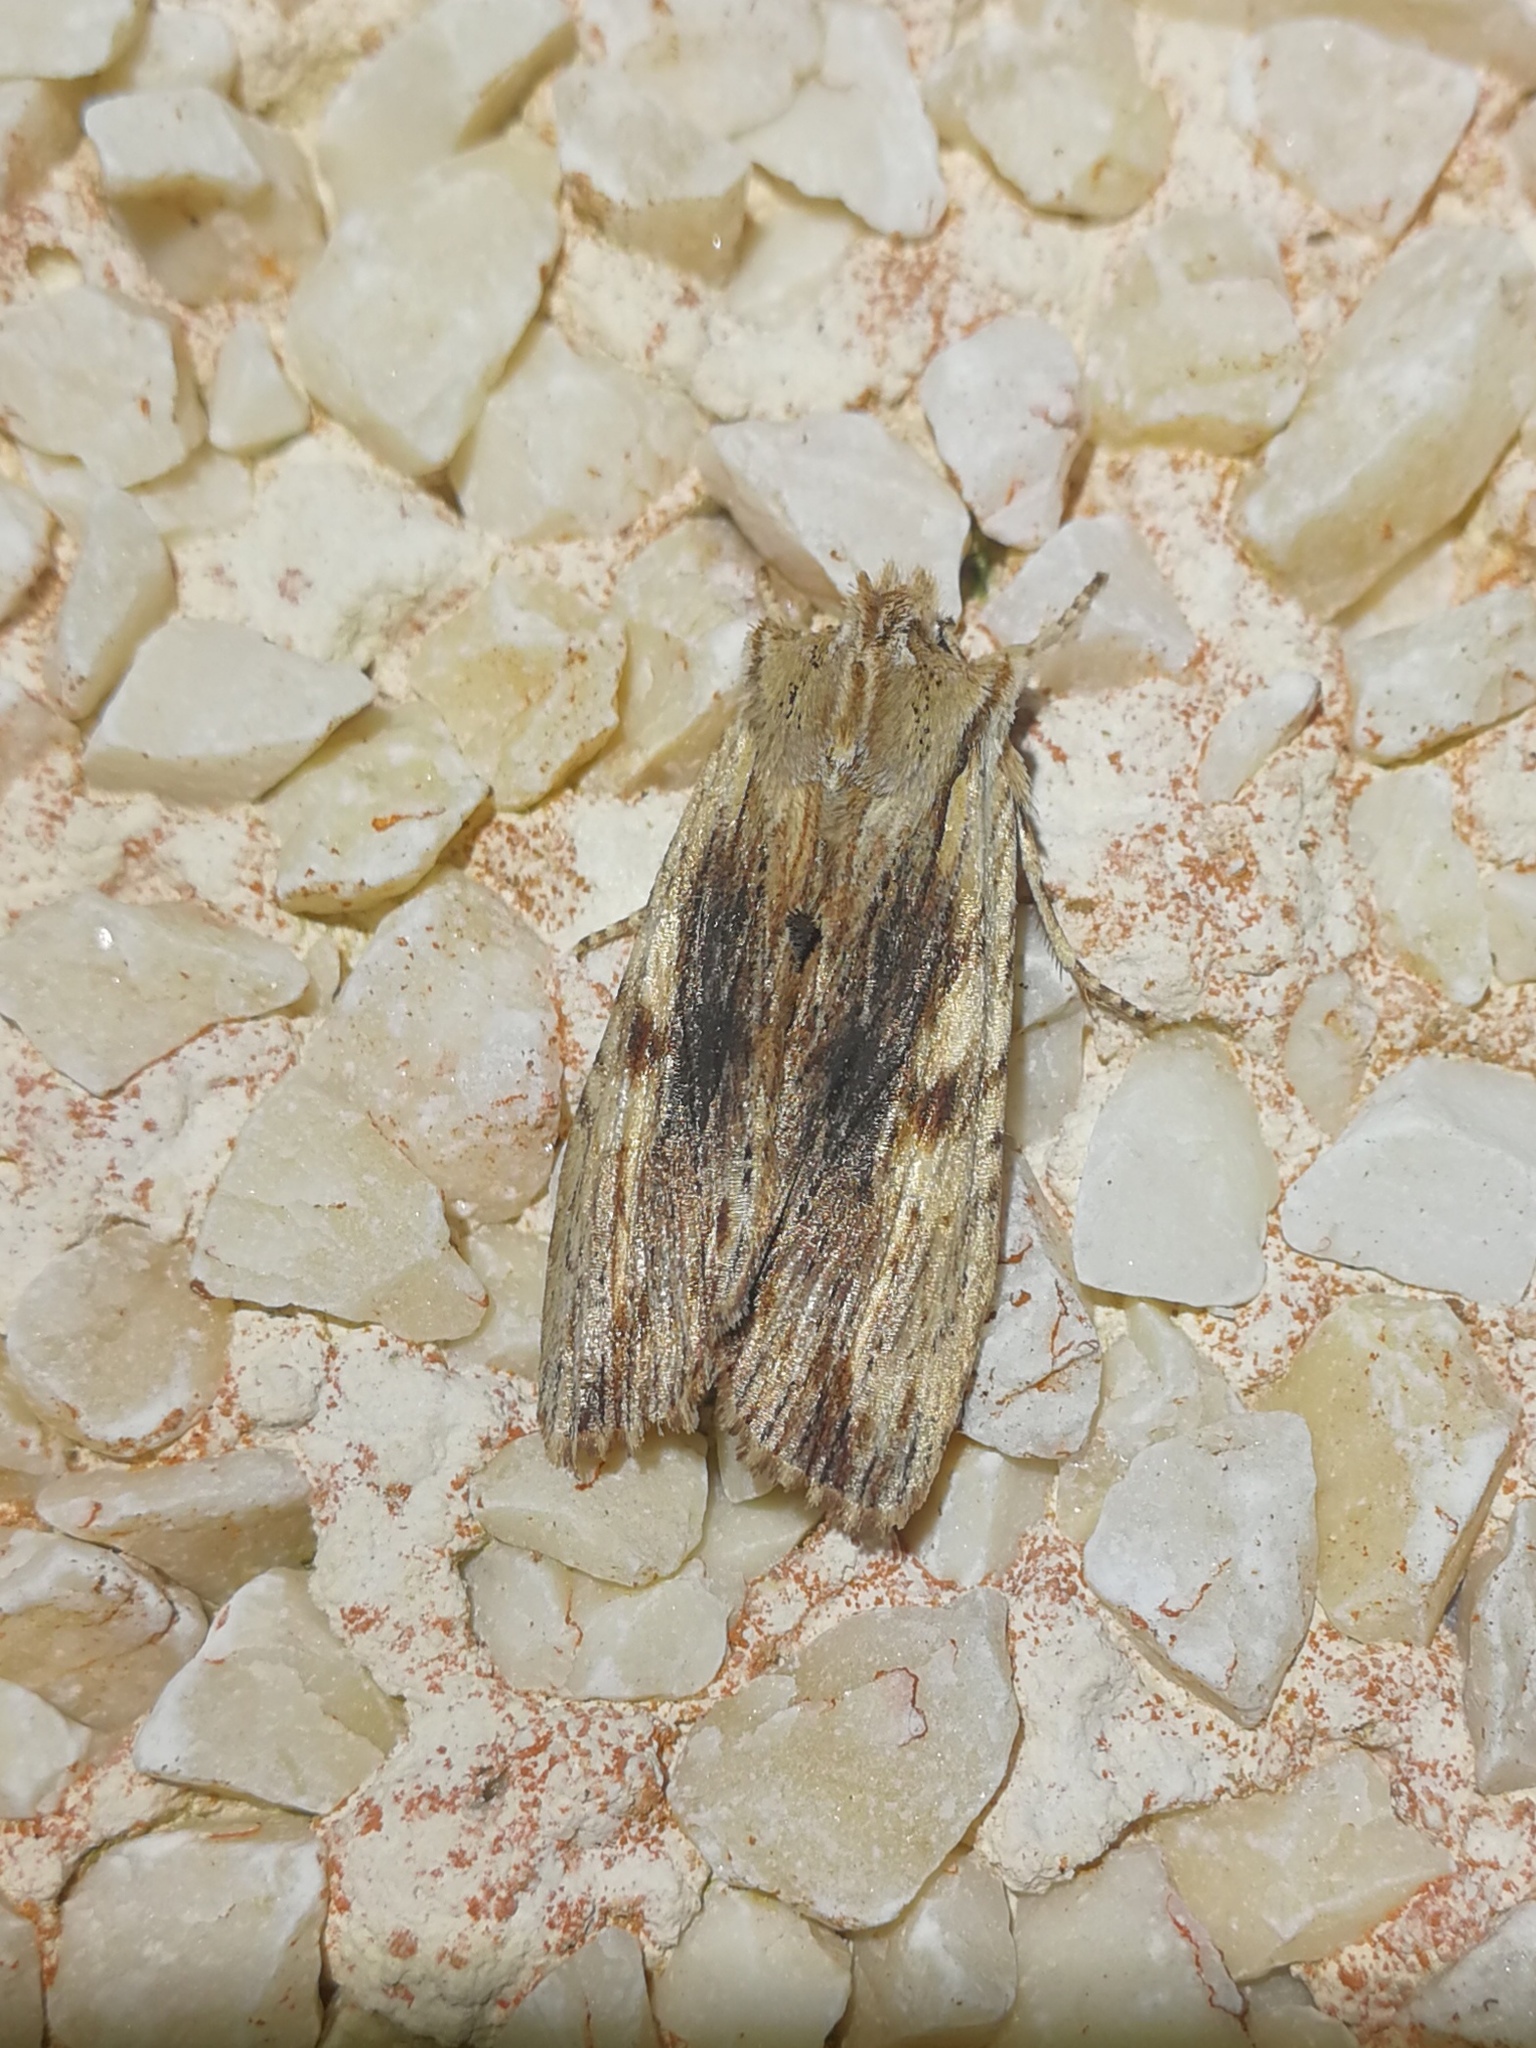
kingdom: Animalia
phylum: Arthropoda
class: Insecta
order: Lepidoptera
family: Noctuidae
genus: Lithophane
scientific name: Lithophane socia
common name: Pale pinion
